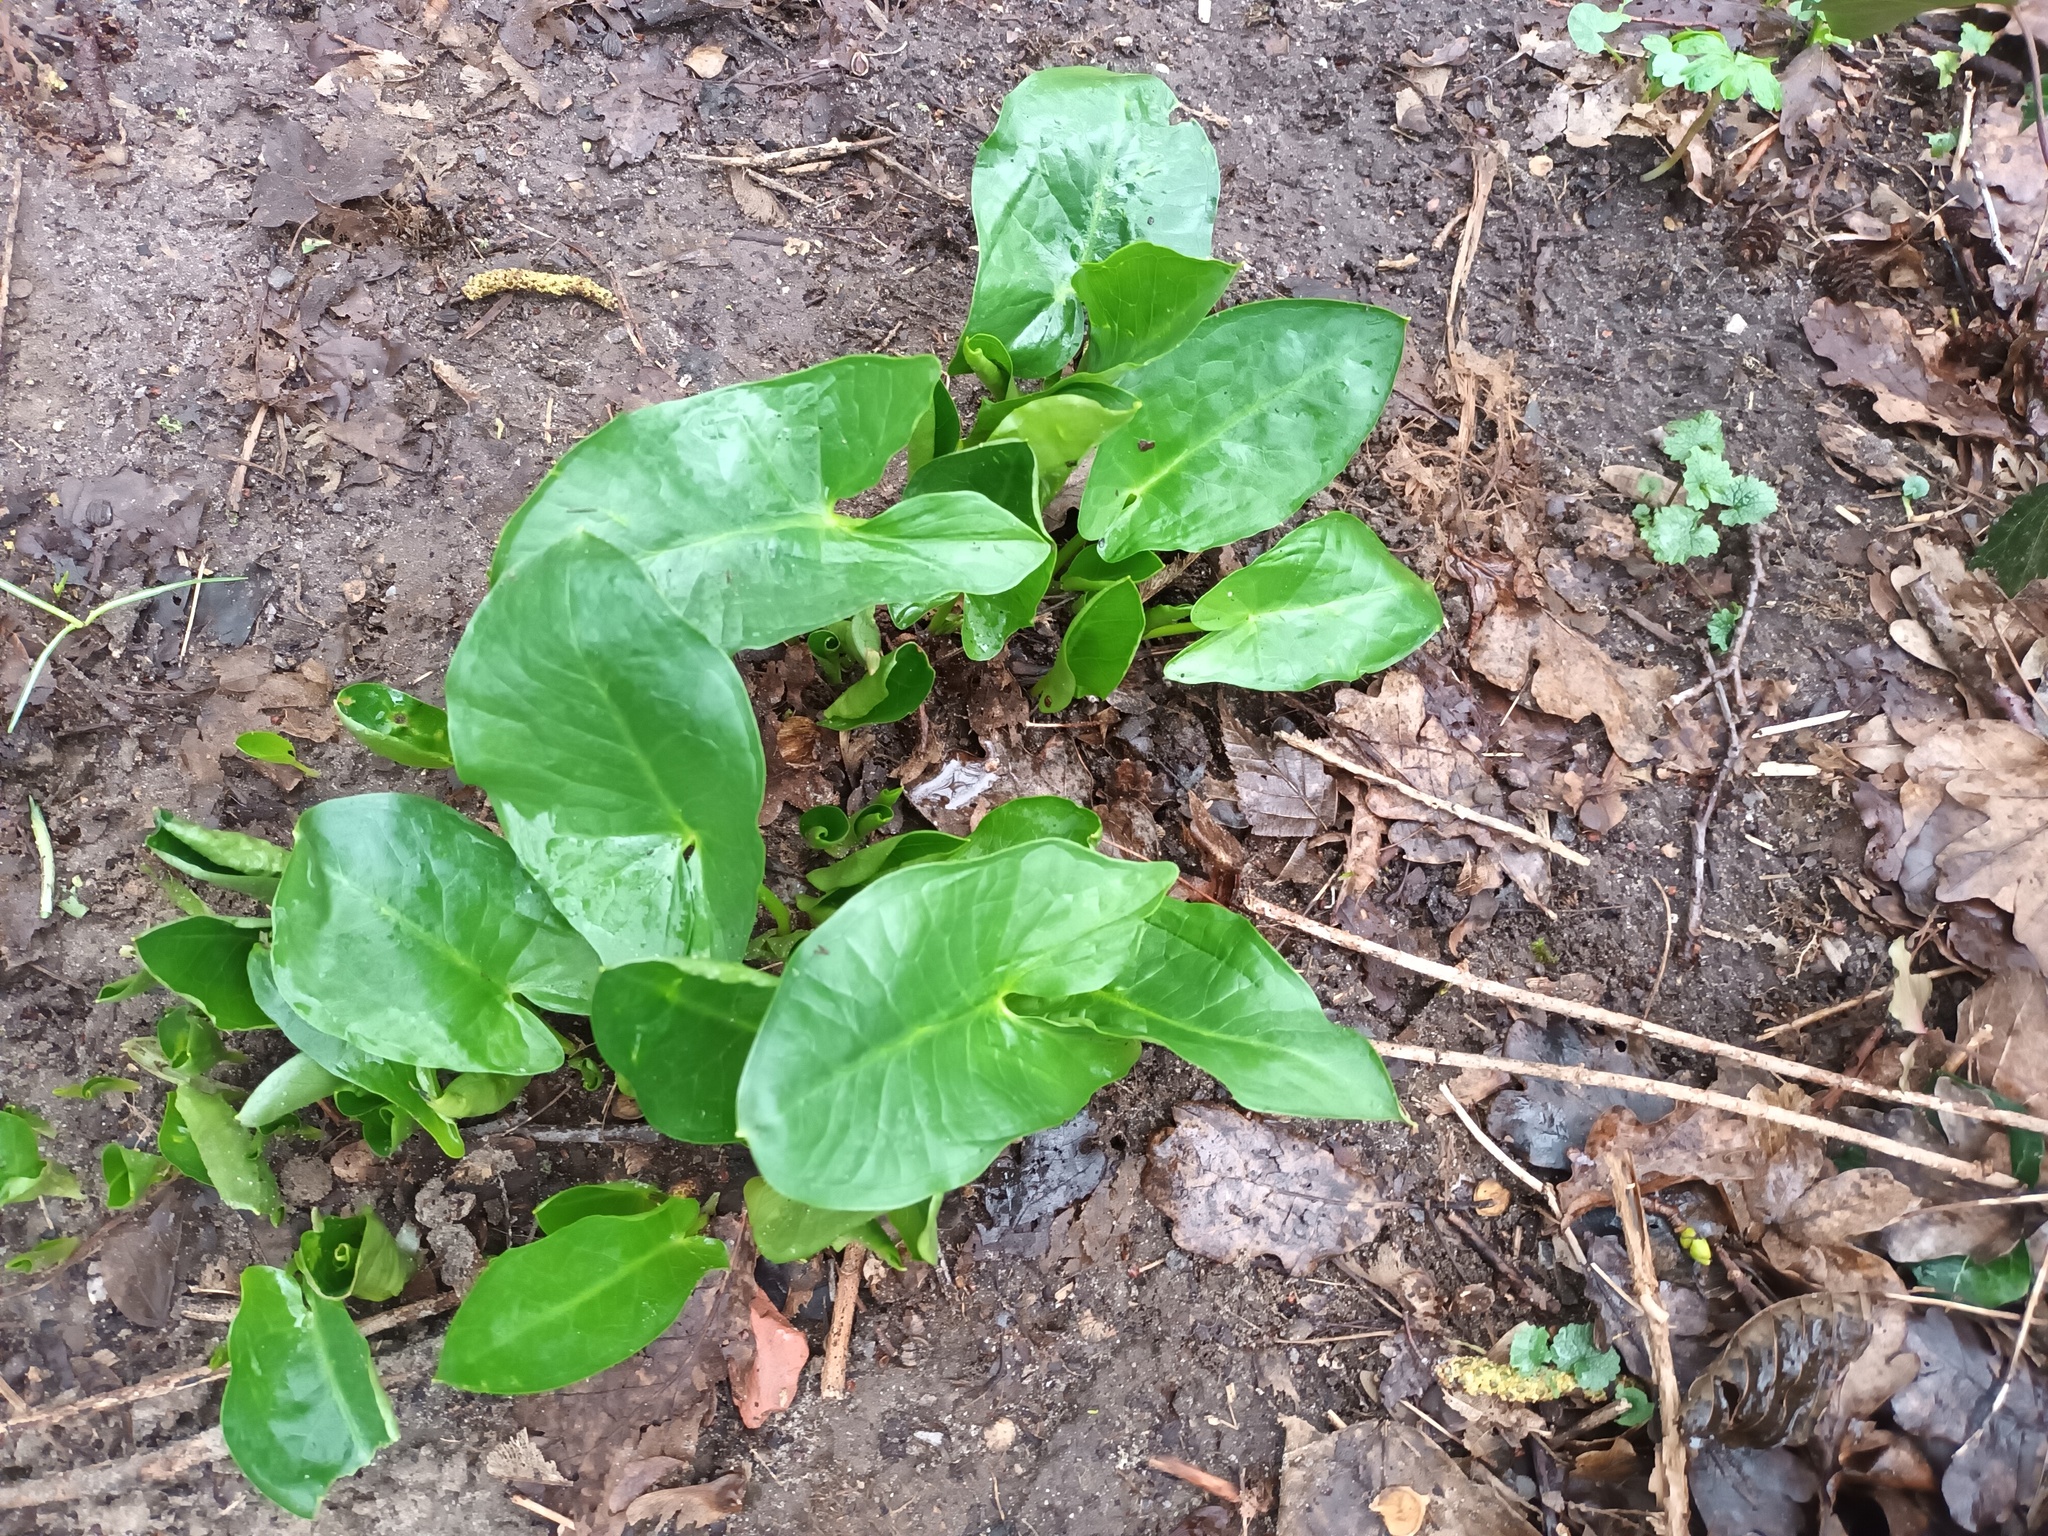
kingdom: Plantae
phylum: Tracheophyta
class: Liliopsida
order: Alismatales
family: Araceae
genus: Arum
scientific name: Arum maculatum
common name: Lords-and-ladies
